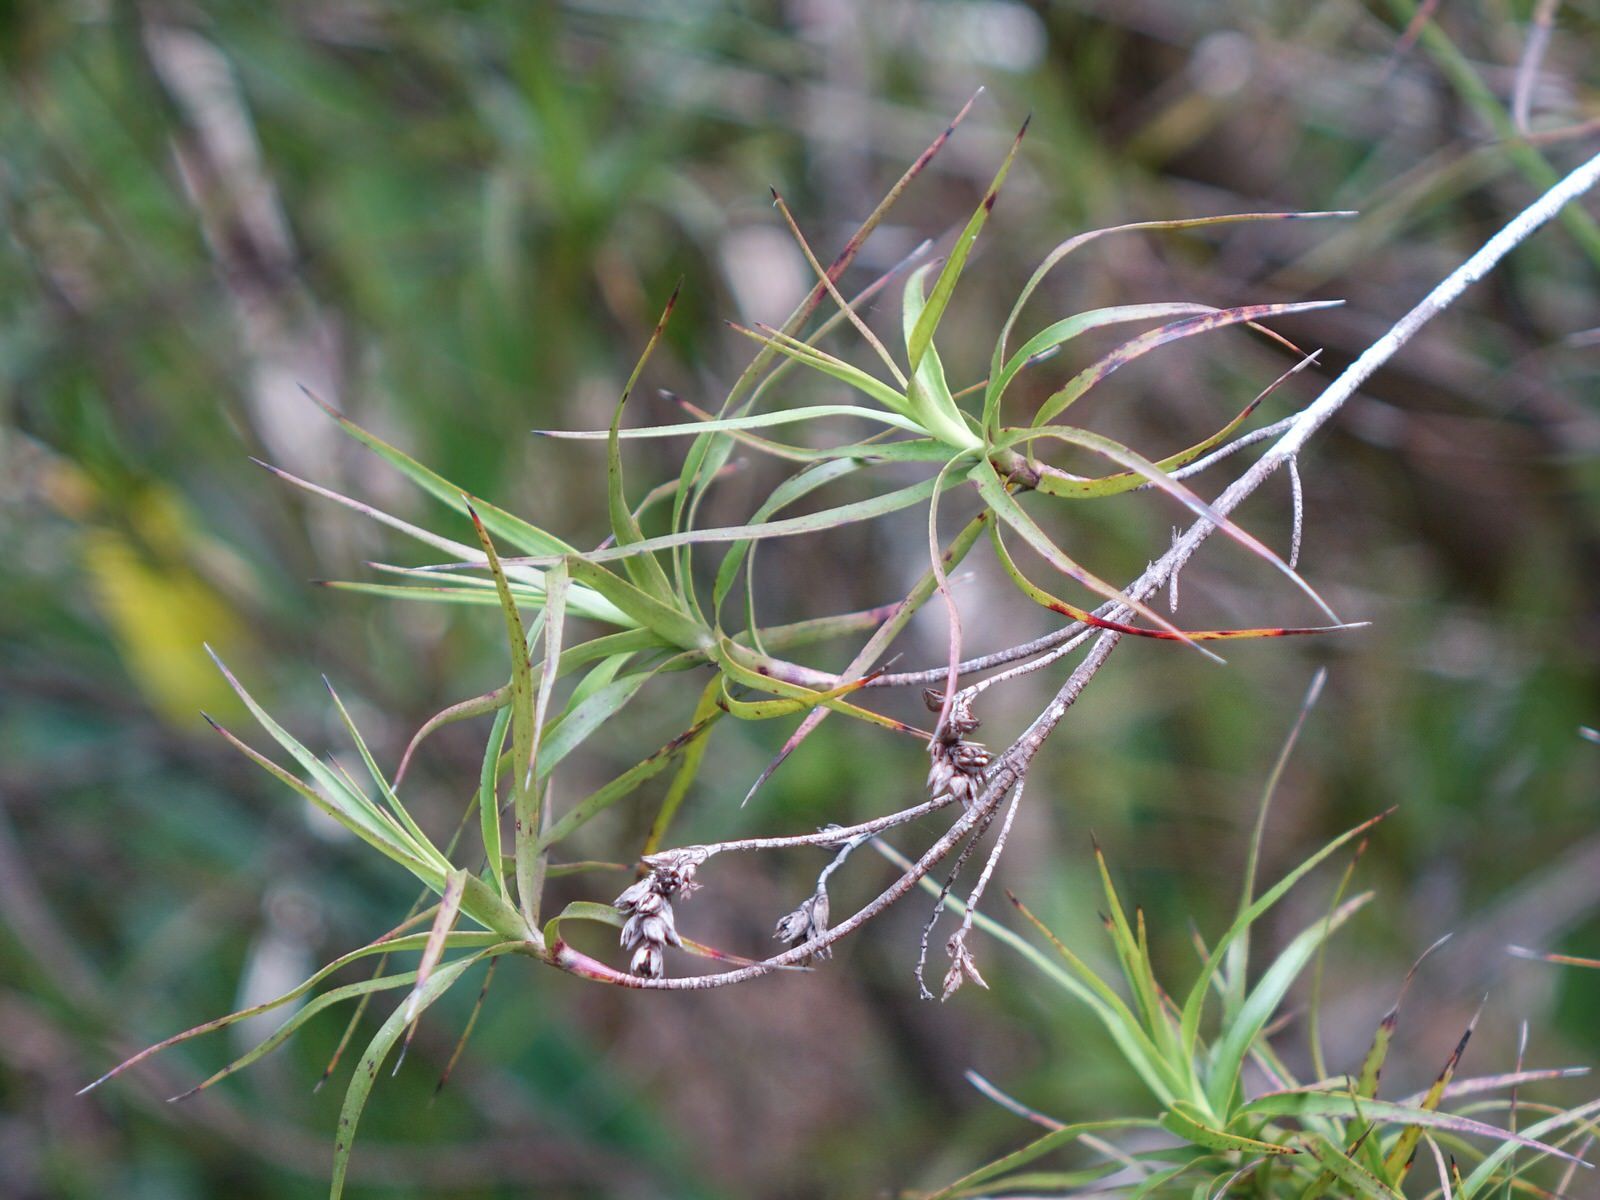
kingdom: Plantae
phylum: Tracheophyta
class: Magnoliopsida
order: Ericales
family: Ericaceae
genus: Dracophyllum
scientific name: Dracophyllum sinclairii
